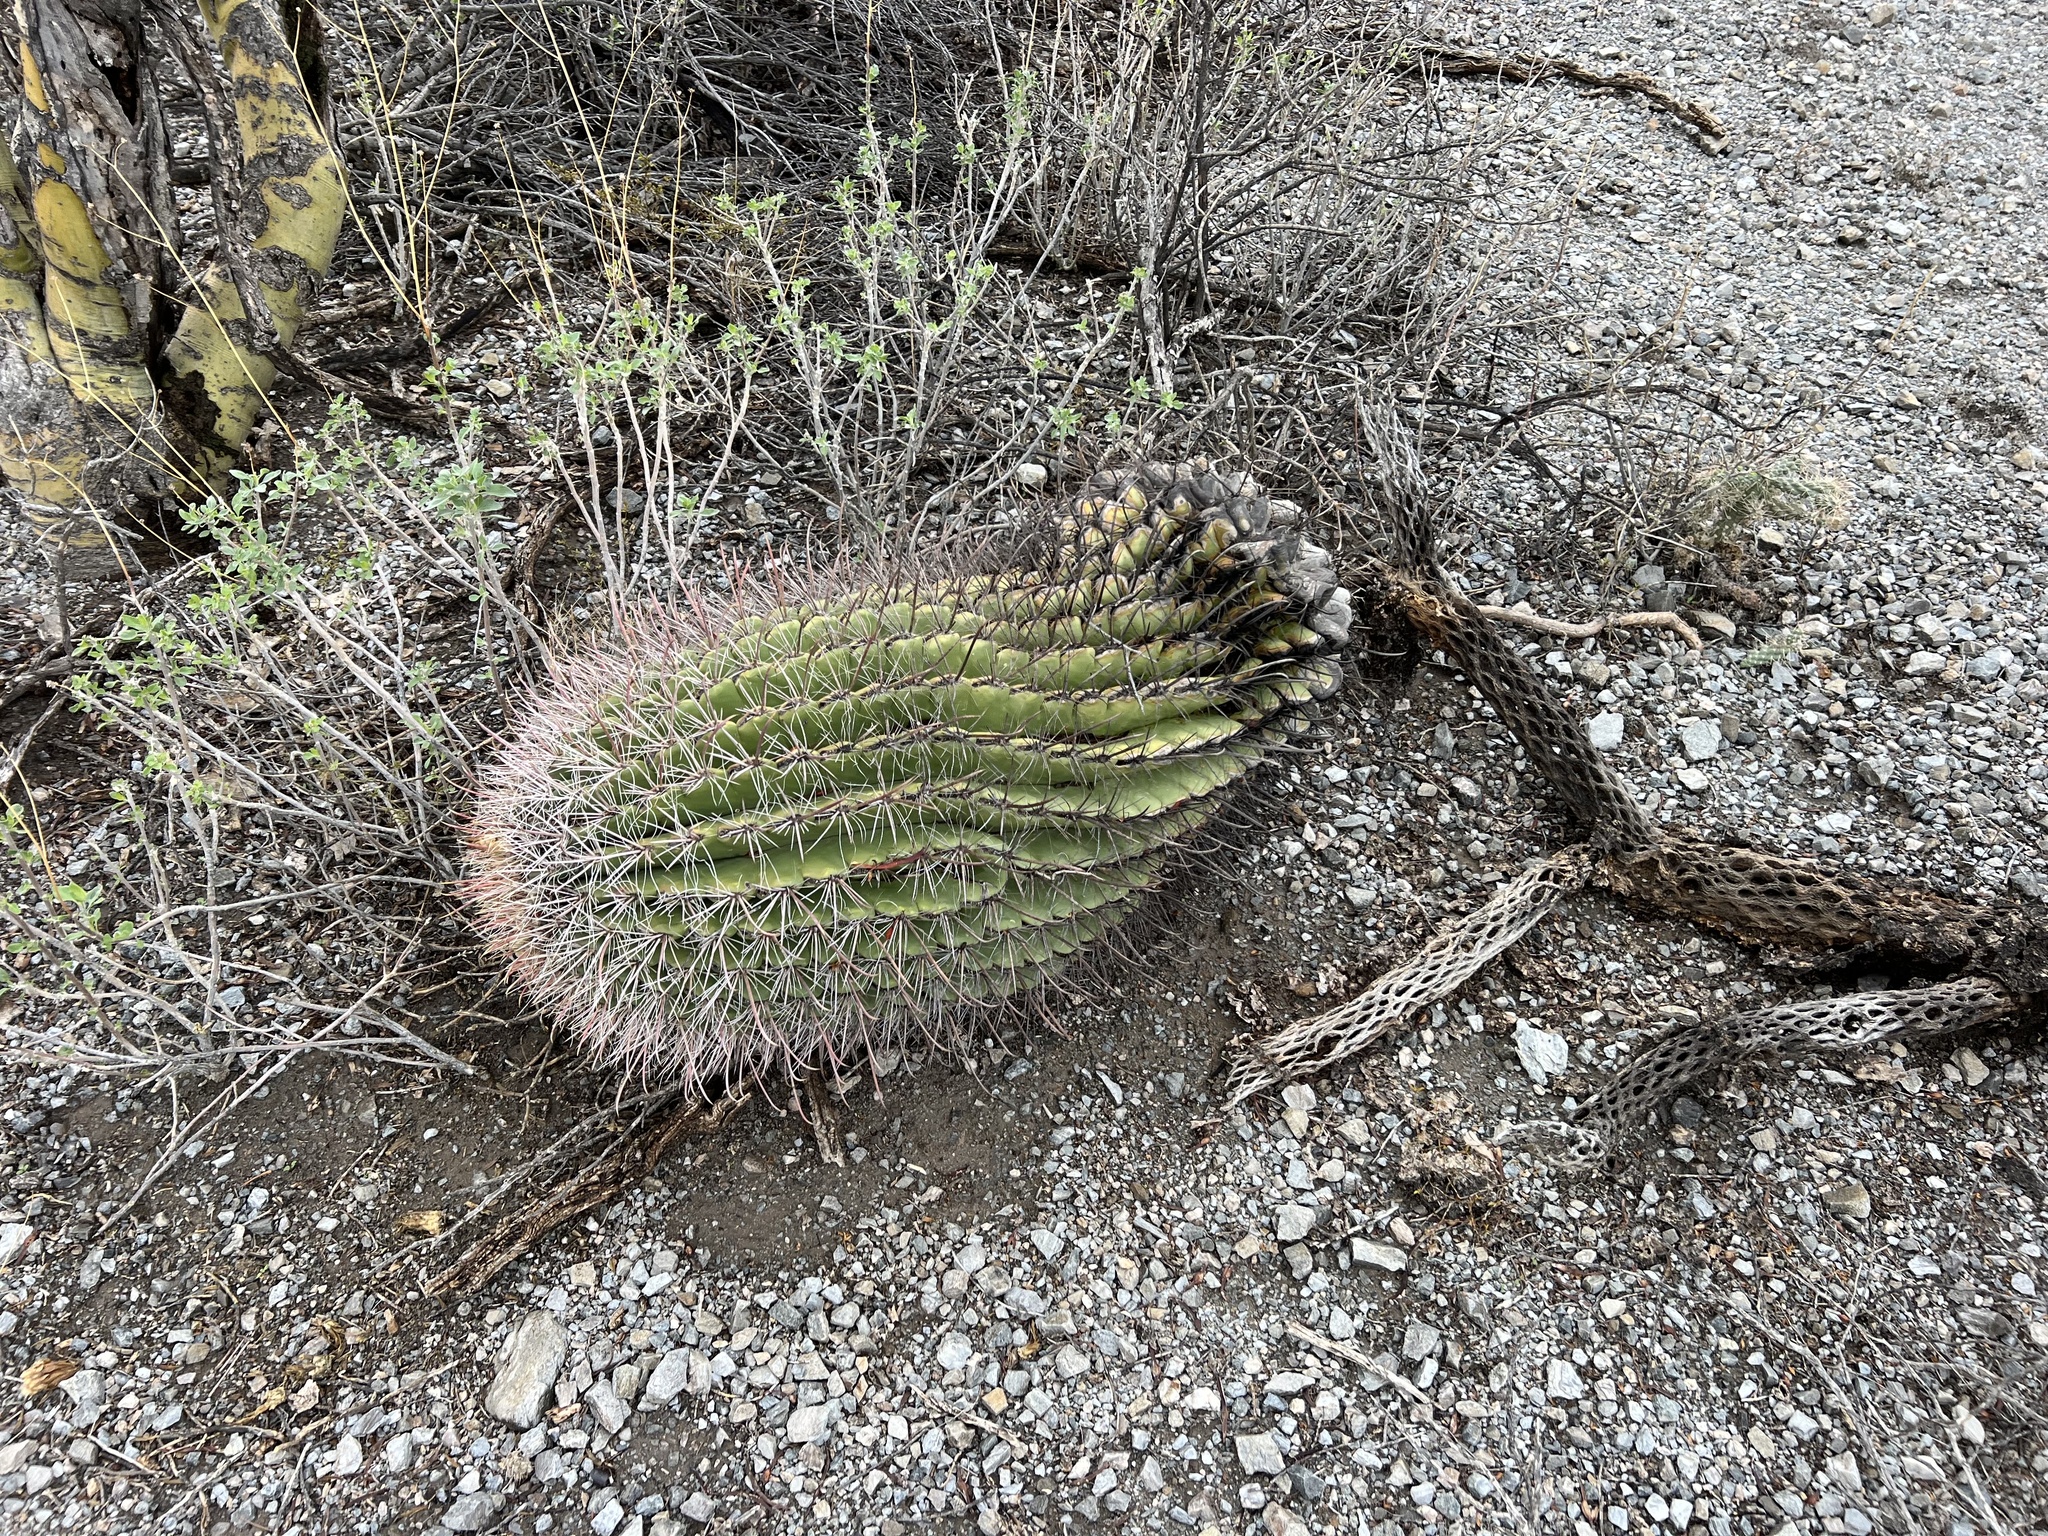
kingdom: Plantae
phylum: Tracheophyta
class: Magnoliopsida
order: Caryophyllales
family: Cactaceae
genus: Ferocactus
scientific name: Ferocactus wislizeni
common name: Candy barrel cactus
